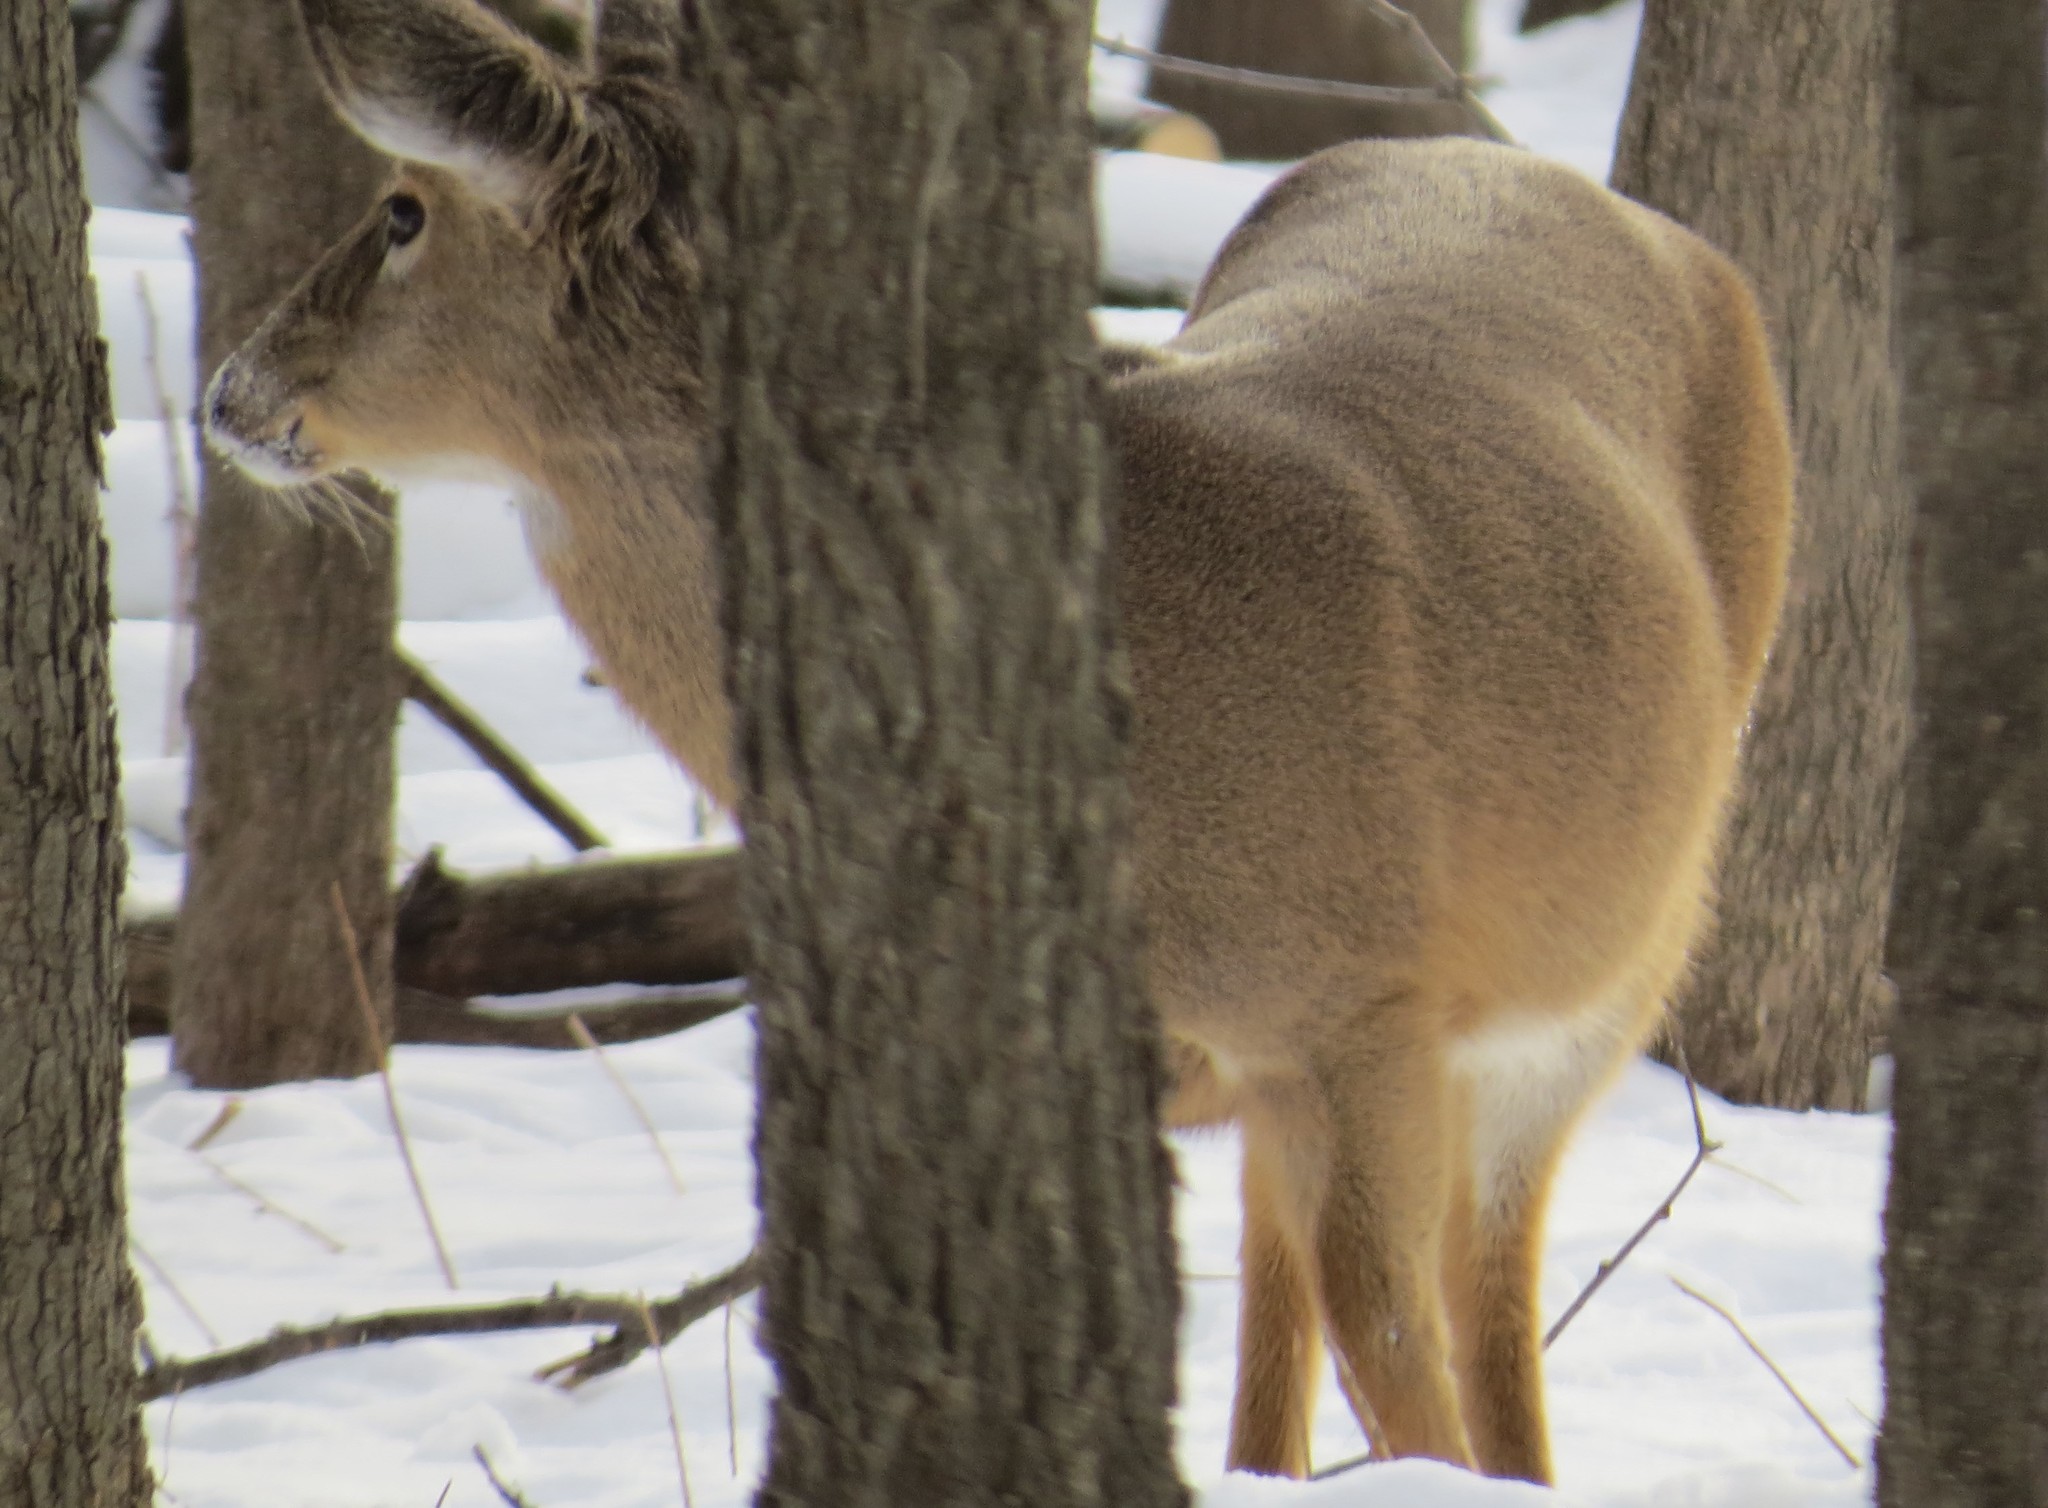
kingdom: Animalia
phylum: Chordata
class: Mammalia
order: Artiodactyla
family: Cervidae
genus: Odocoileus
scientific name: Odocoileus virginianus
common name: White-tailed deer
